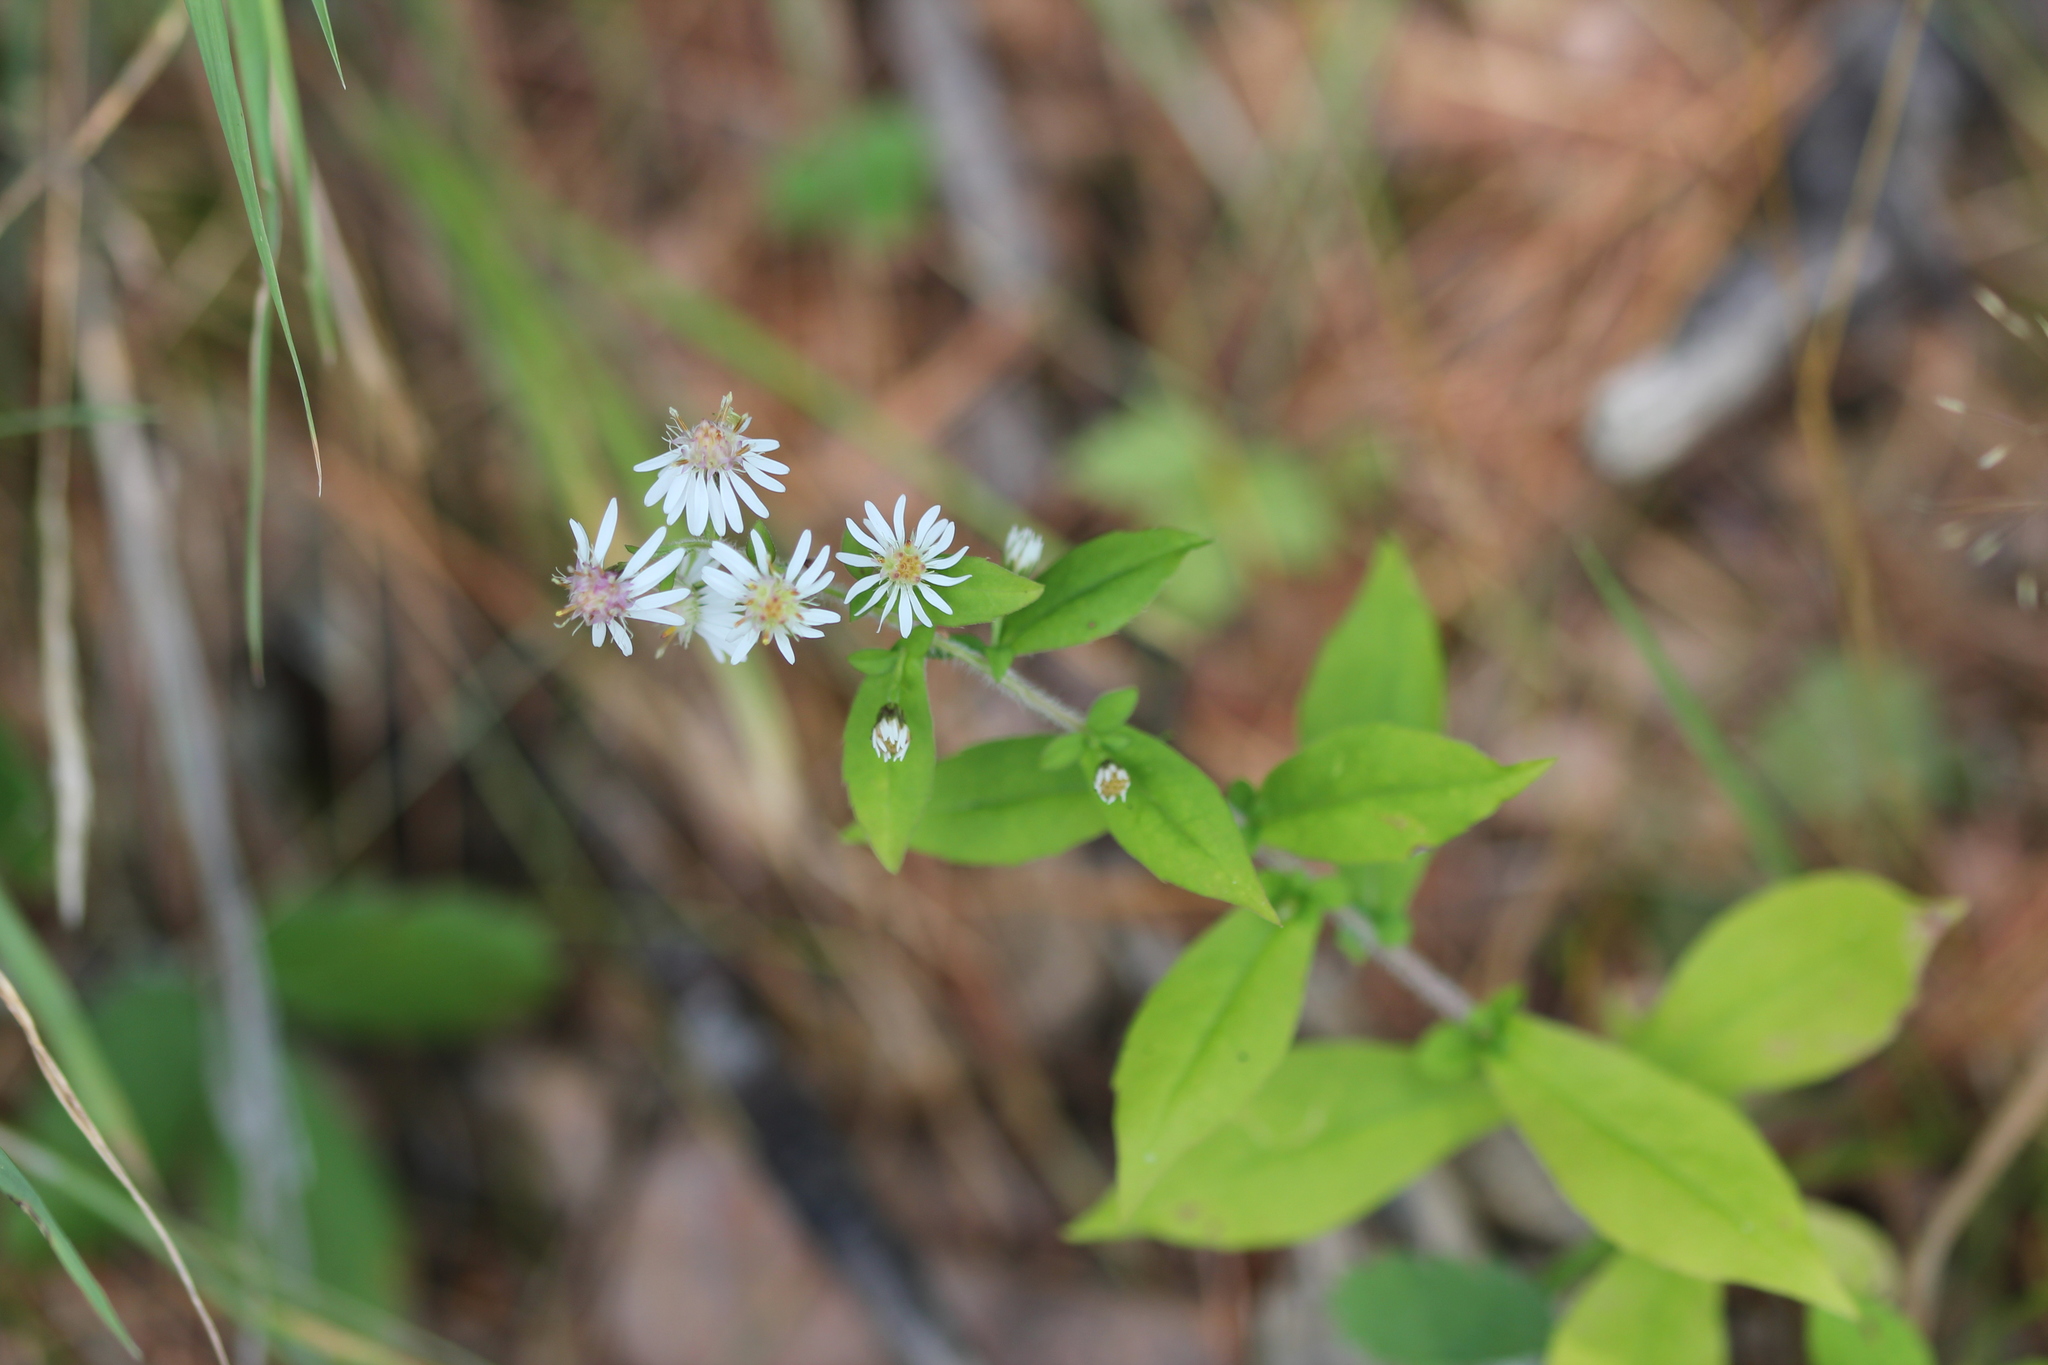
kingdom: Plantae
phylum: Tracheophyta
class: Magnoliopsida
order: Asterales
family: Asteraceae
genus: Symphyotrichum
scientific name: Symphyotrichum lateriflorum
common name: Calico aster
